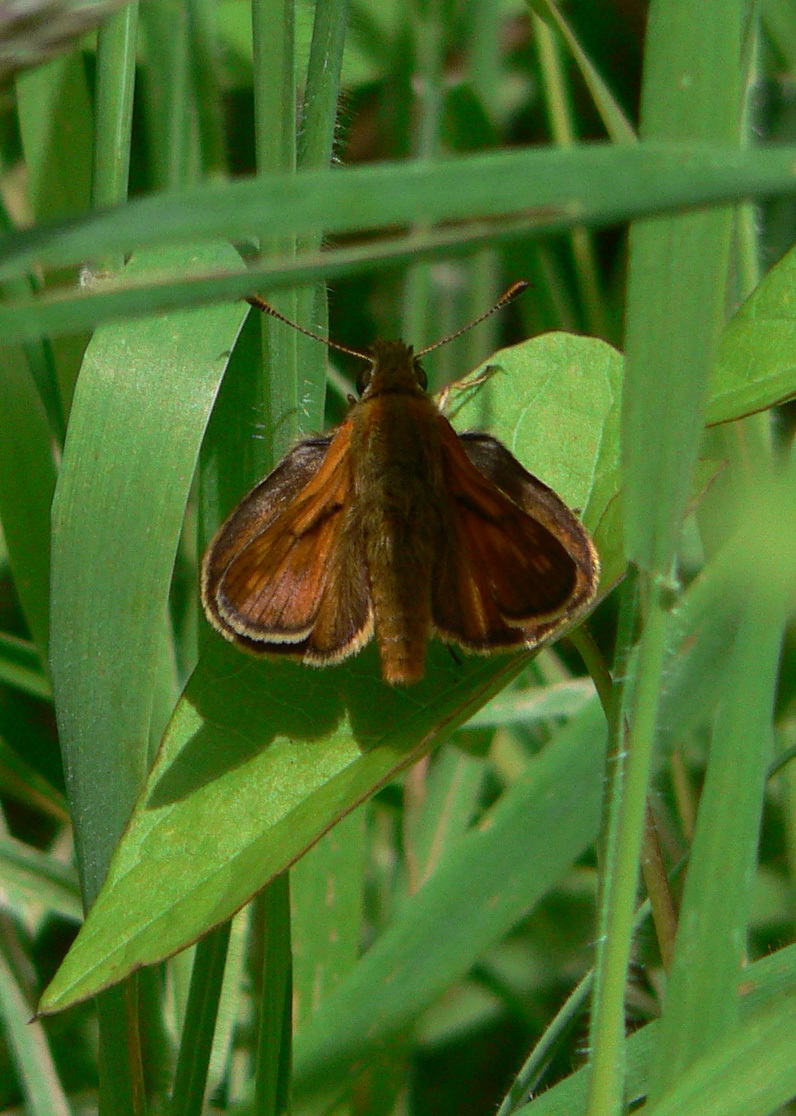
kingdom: Animalia
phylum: Arthropoda
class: Insecta
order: Lepidoptera
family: Hesperiidae
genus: Ochlodes
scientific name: Ochlodes venata
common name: Large skipper
